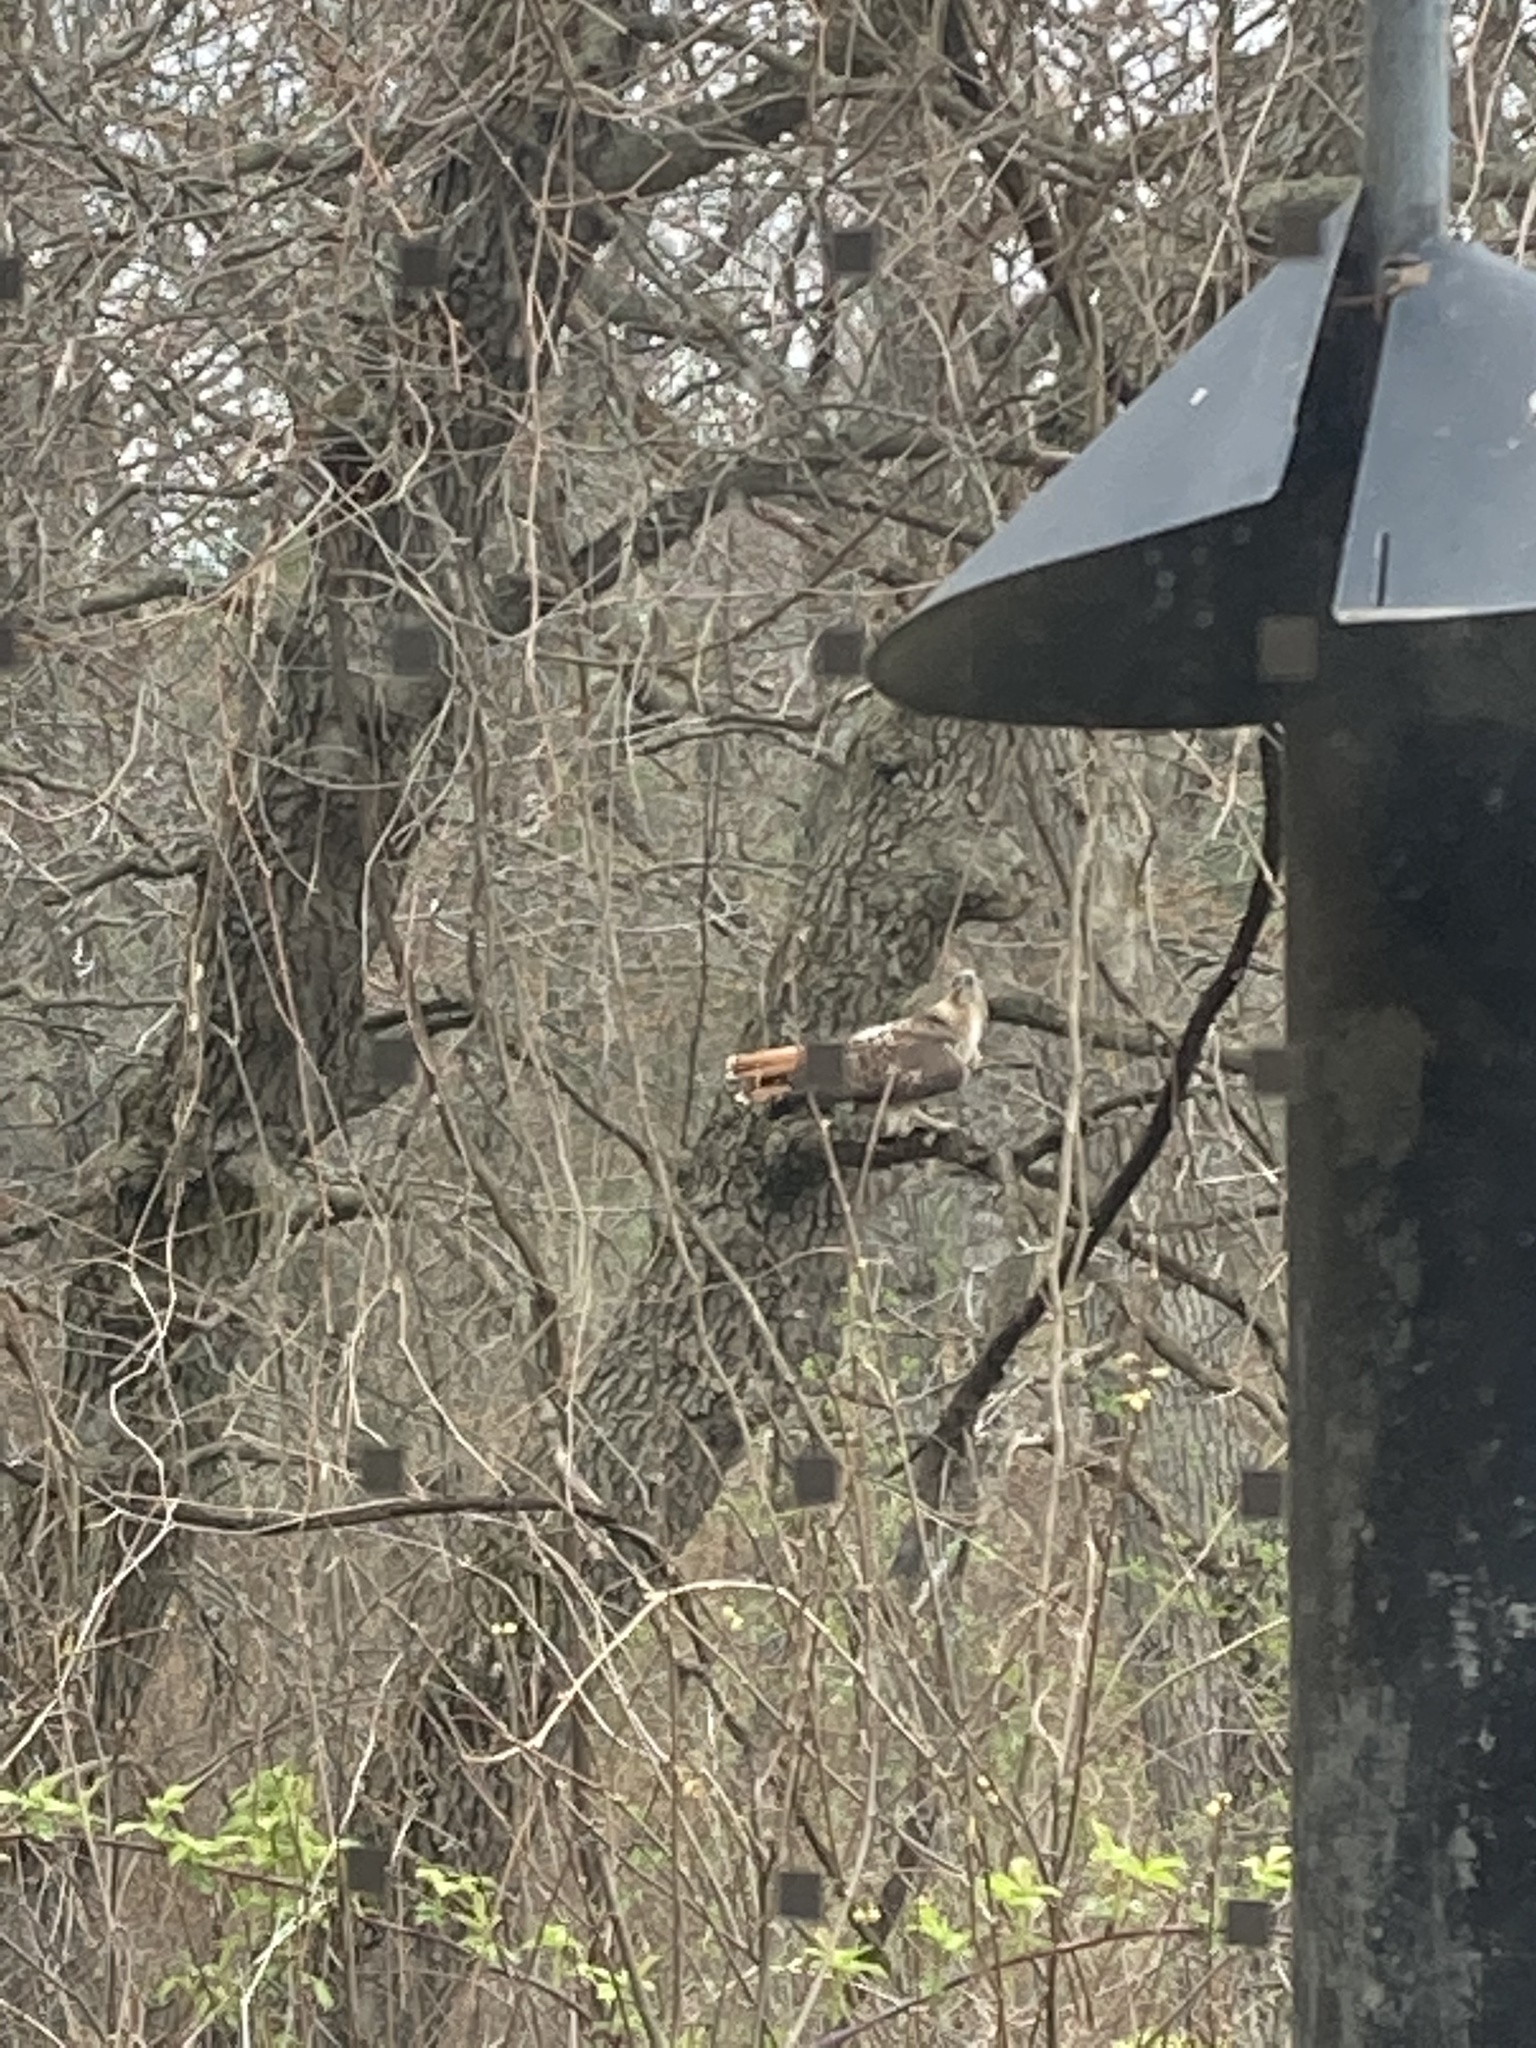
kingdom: Animalia
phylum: Chordata
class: Aves
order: Accipitriformes
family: Accipitridae
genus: Buteo
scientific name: Buteo jamaicensis
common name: Red-tailed hawk
